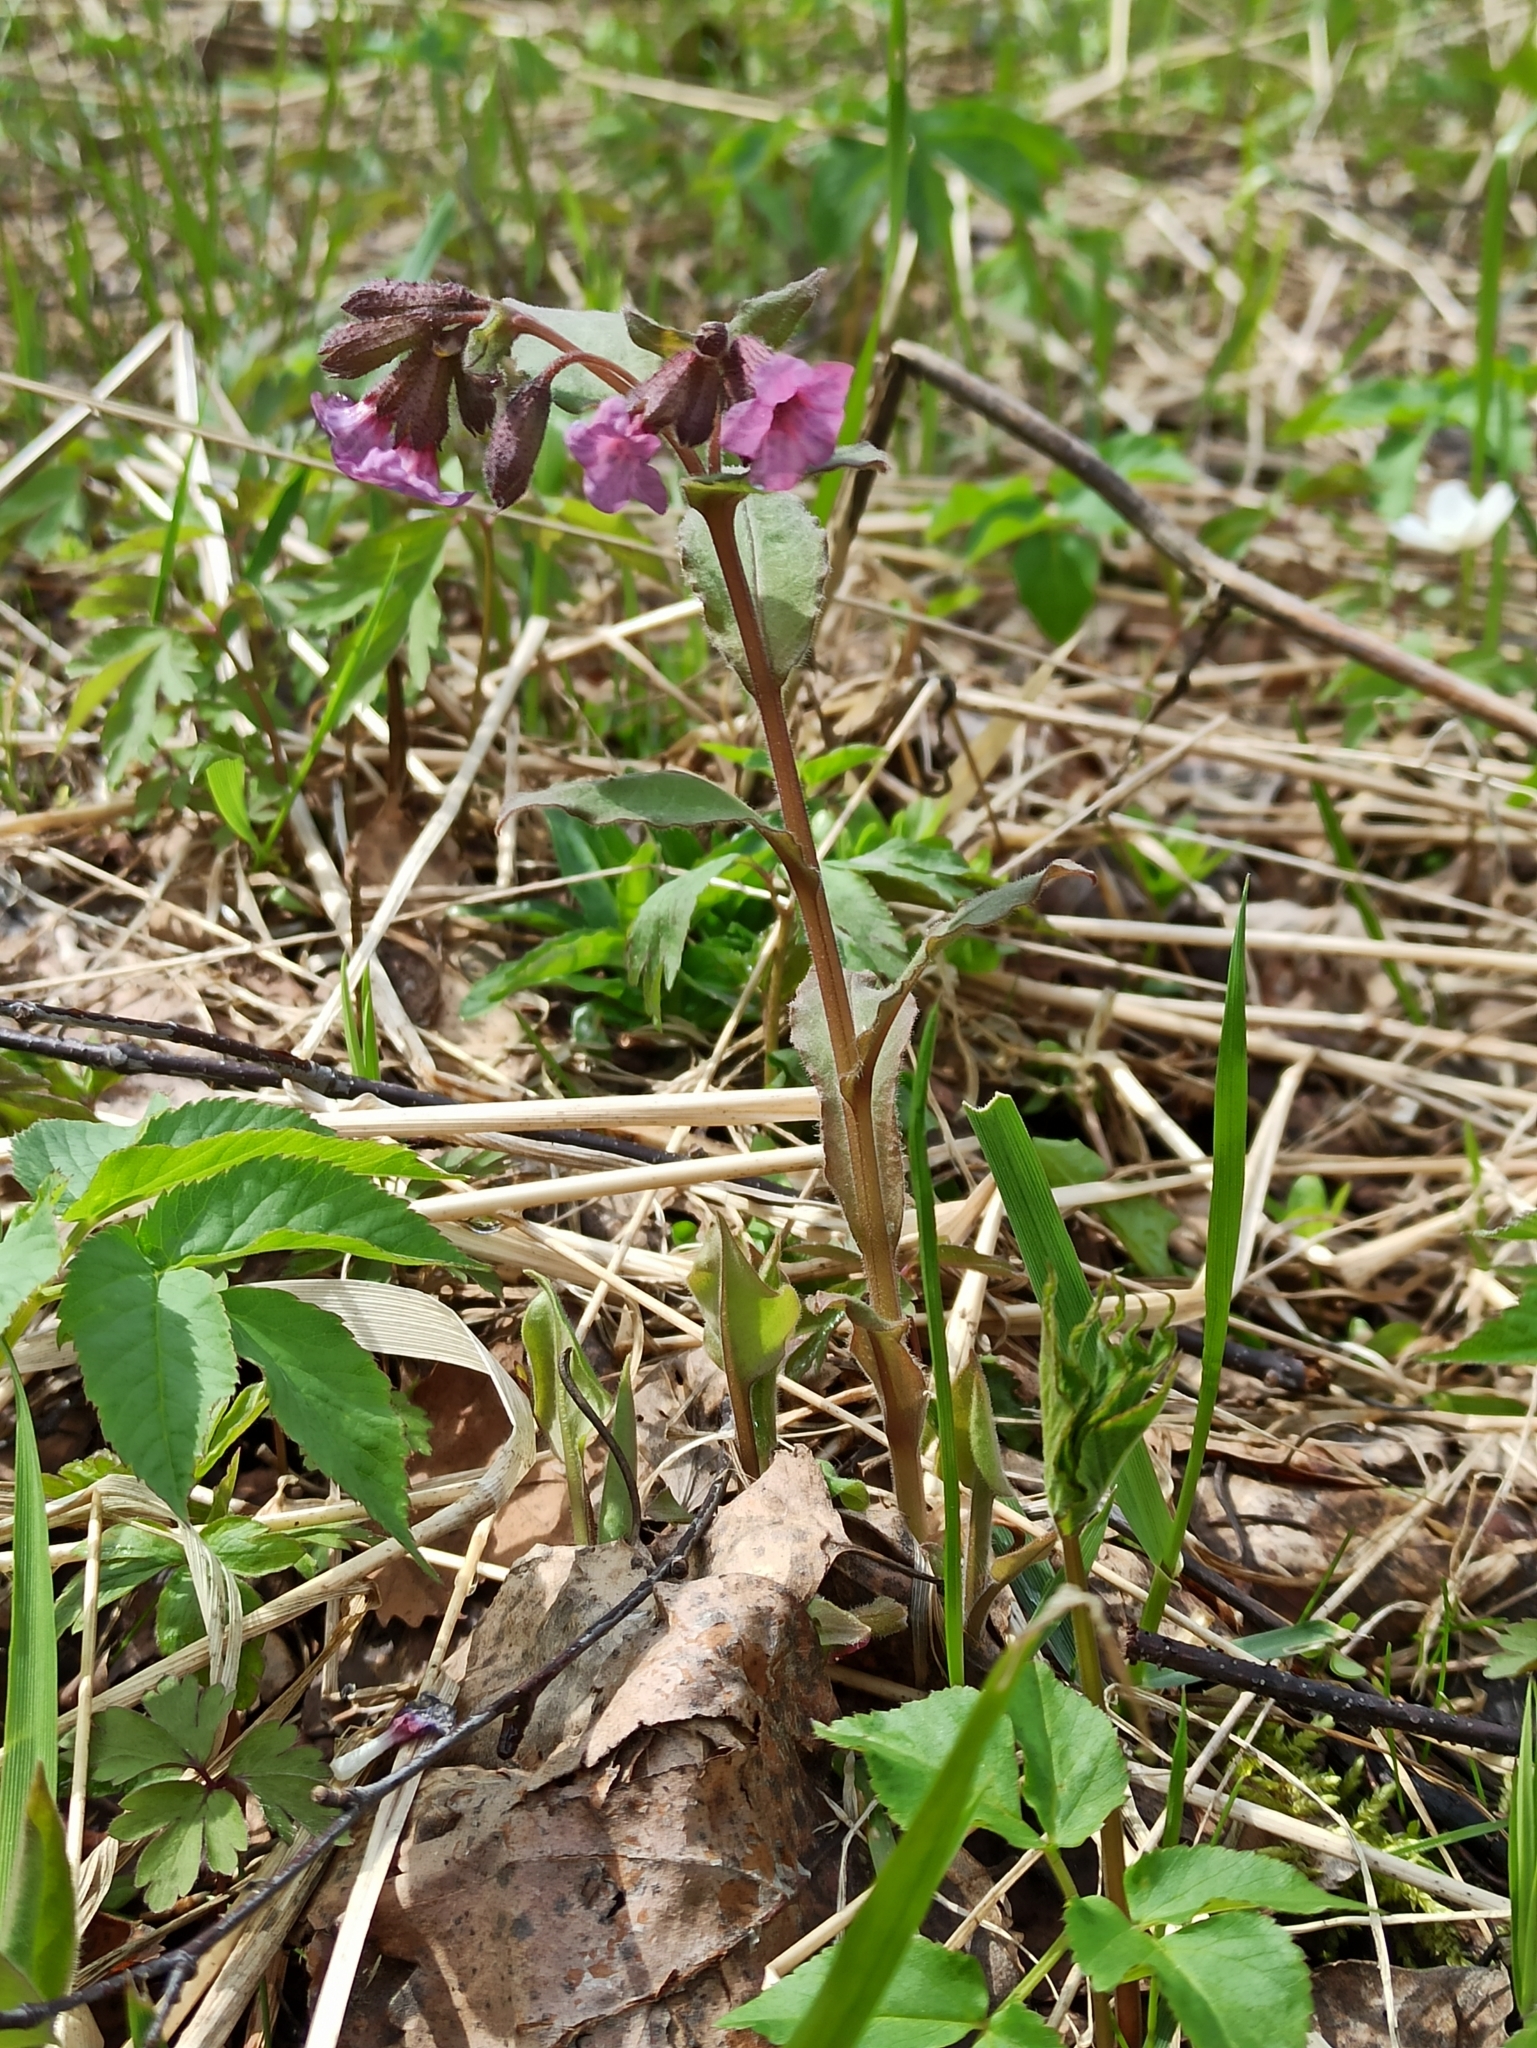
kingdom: Plantae
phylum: Tracheophyta
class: Magnoliopsida
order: Boraginales
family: Boraginaceae
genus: Pulmonaria
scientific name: Pulmonaria obscura
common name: Suffolk lungwort
